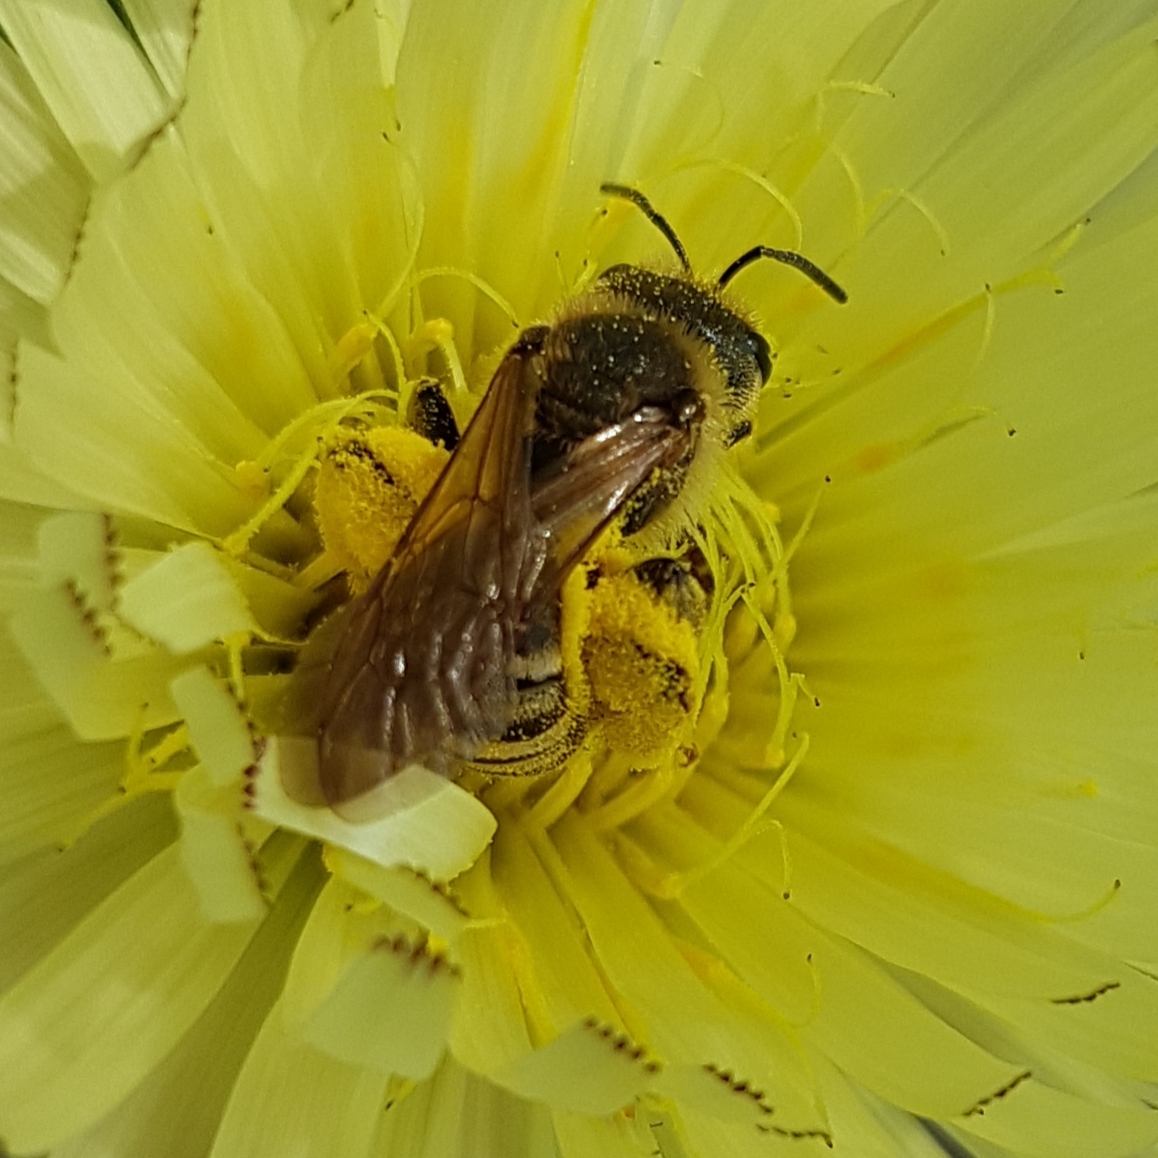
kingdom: Animalia
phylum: Arthropoda
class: Insecta
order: Hymenoptera
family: Halictidae
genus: Halictus
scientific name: Halictus scabiosae
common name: Great banded furrow bee
